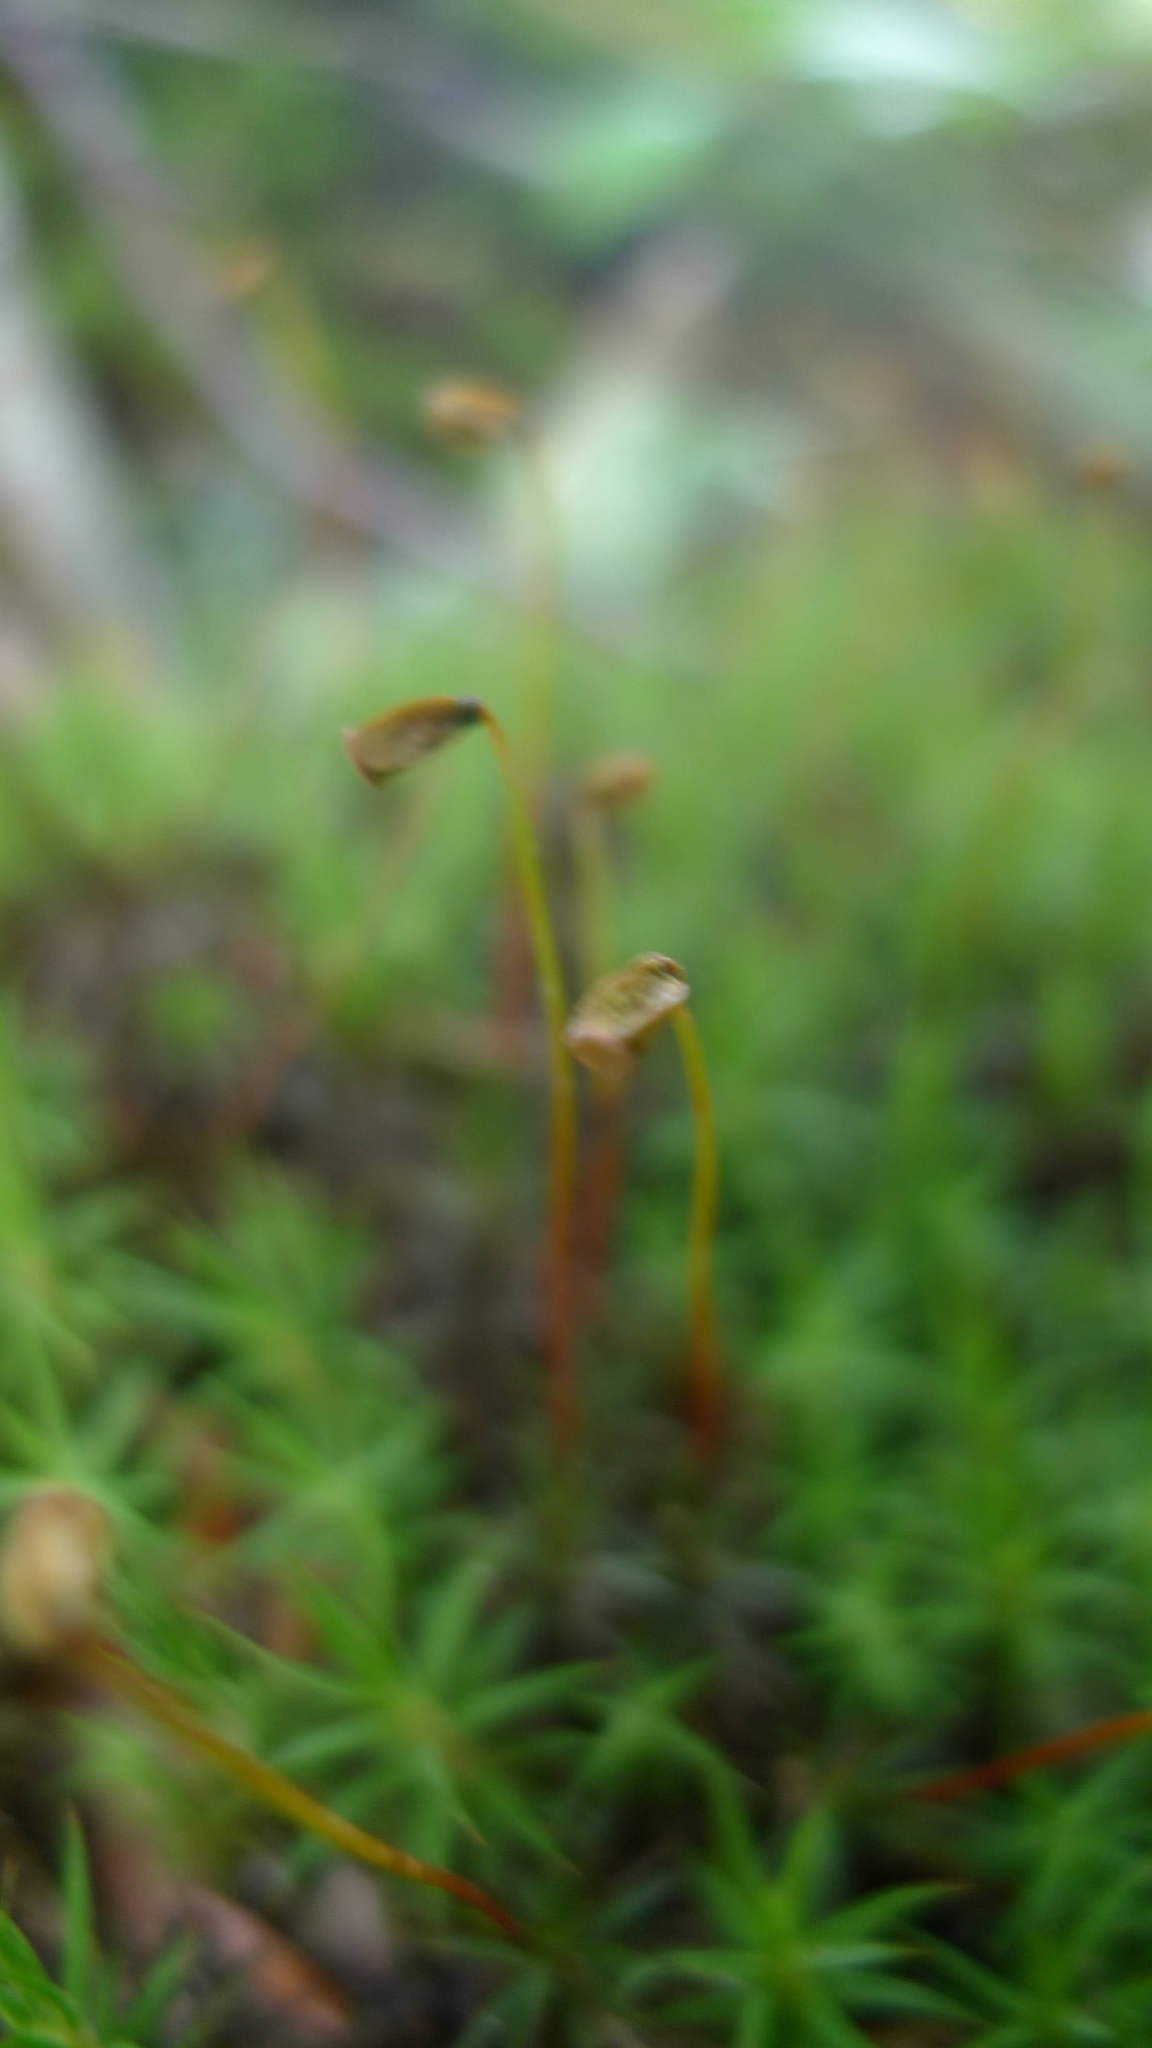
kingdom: Plantae
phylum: Bryophyta
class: Polytrichopsida
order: Polytrichales
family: Polytrichaceae
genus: Polytrichum
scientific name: Polytrichum formosum
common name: Bank haircap moss
